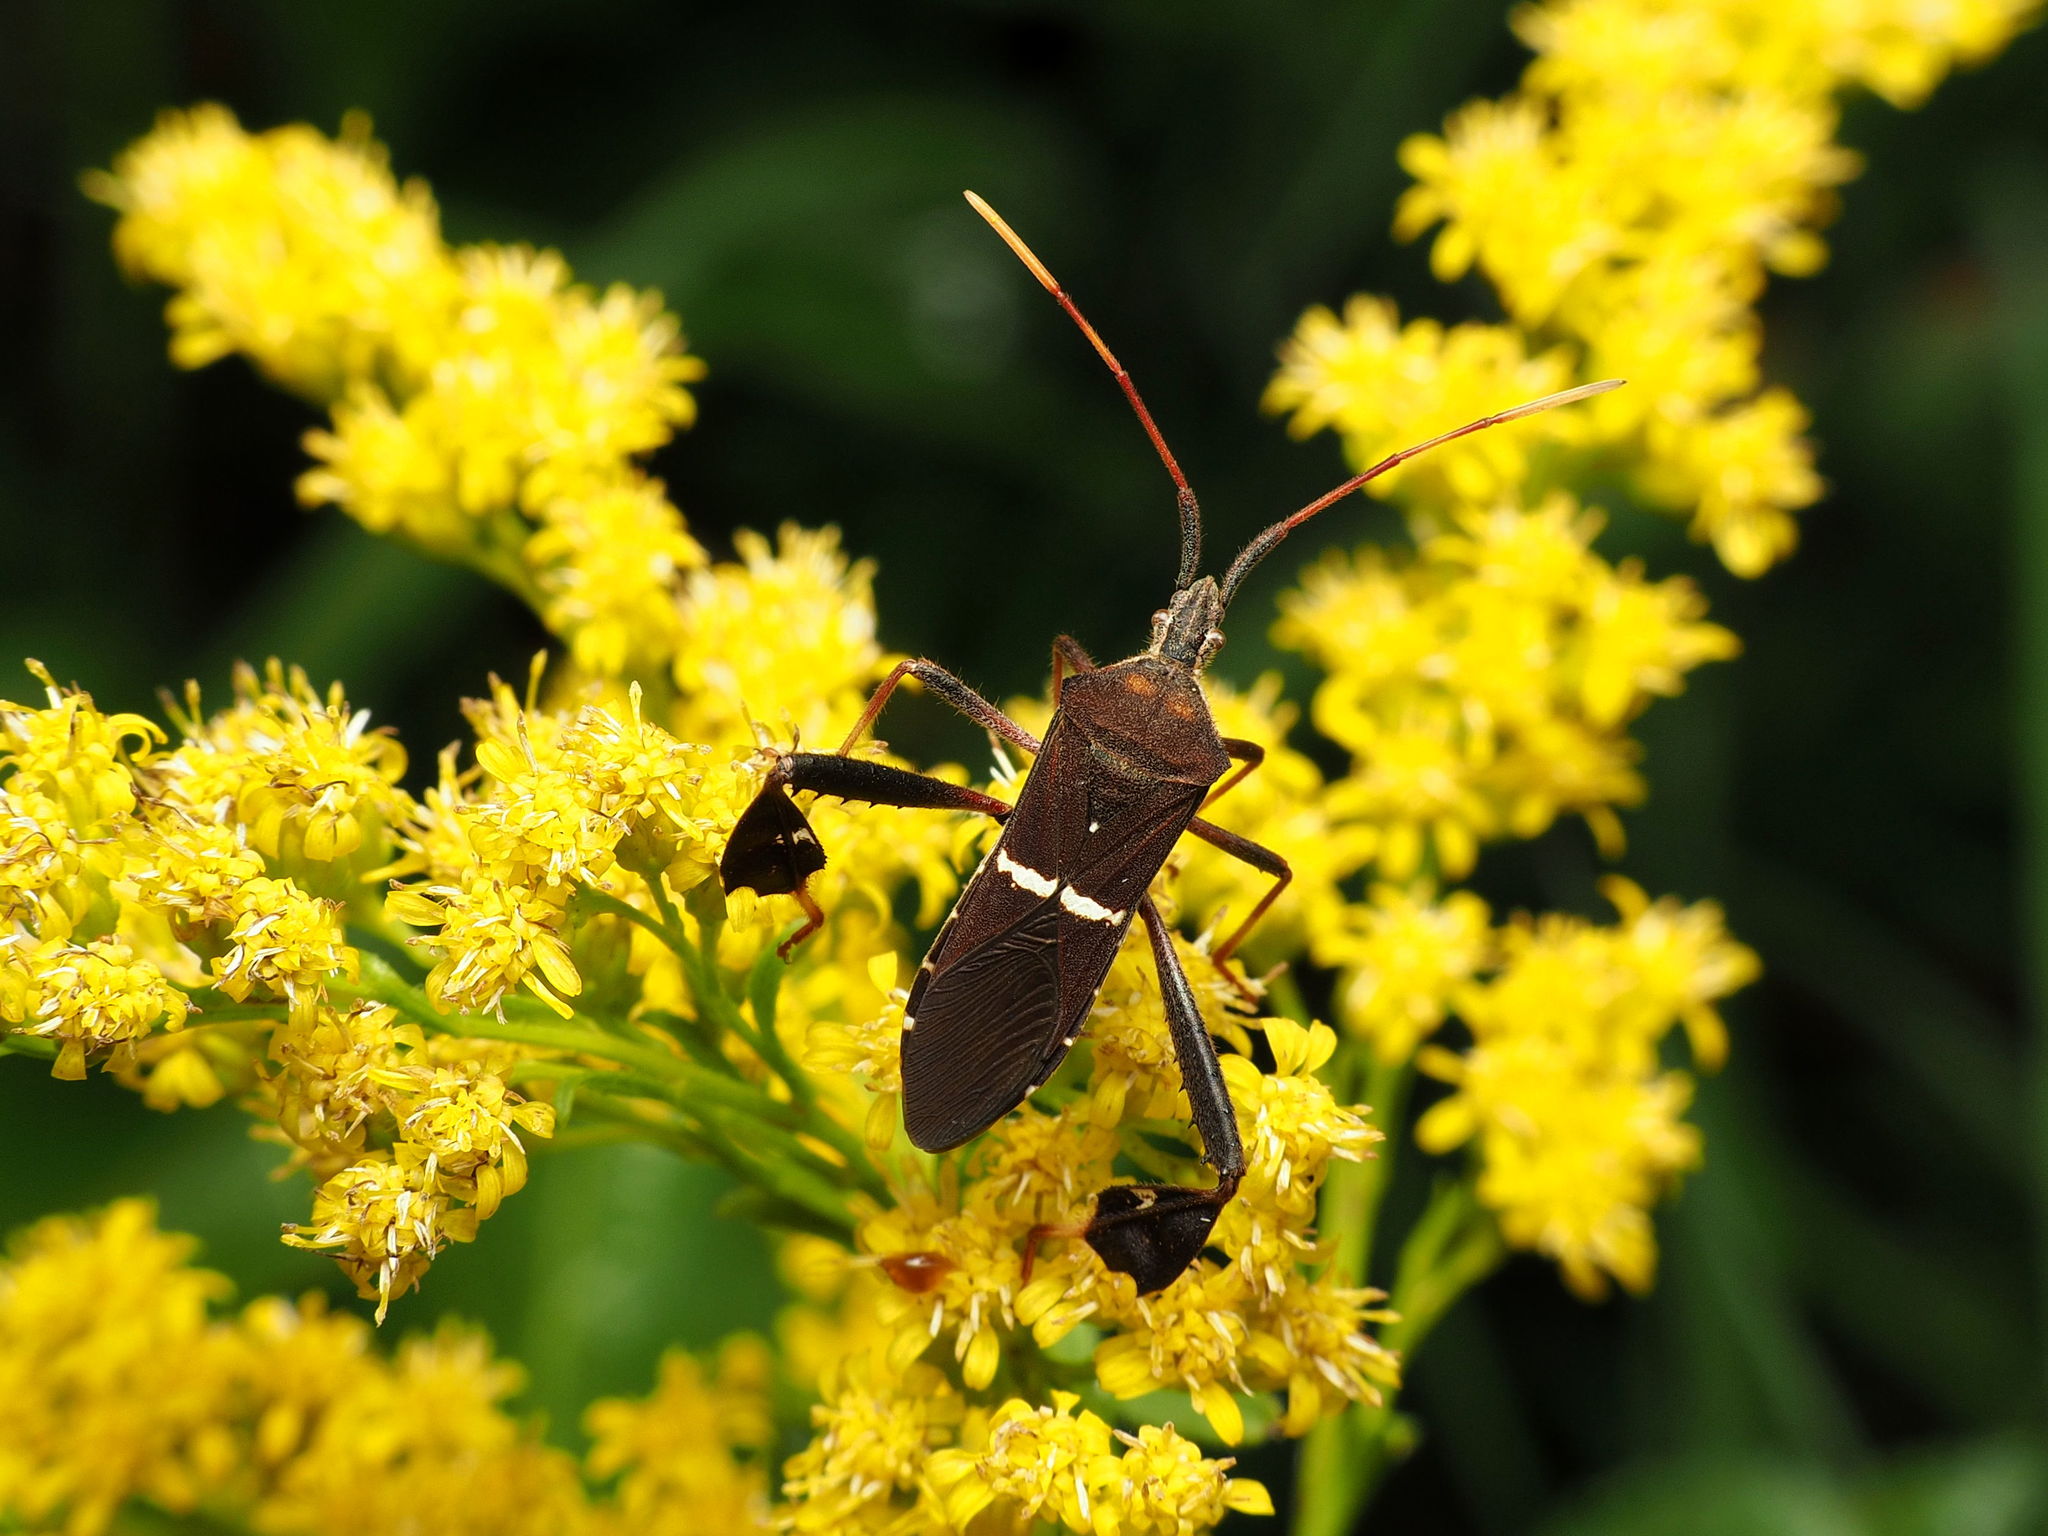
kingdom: Animalia
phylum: Arthropoda
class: Insecta
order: Hemiptera
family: Coreidae
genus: Leptoglossus
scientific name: Leptoglossus phyllopus
